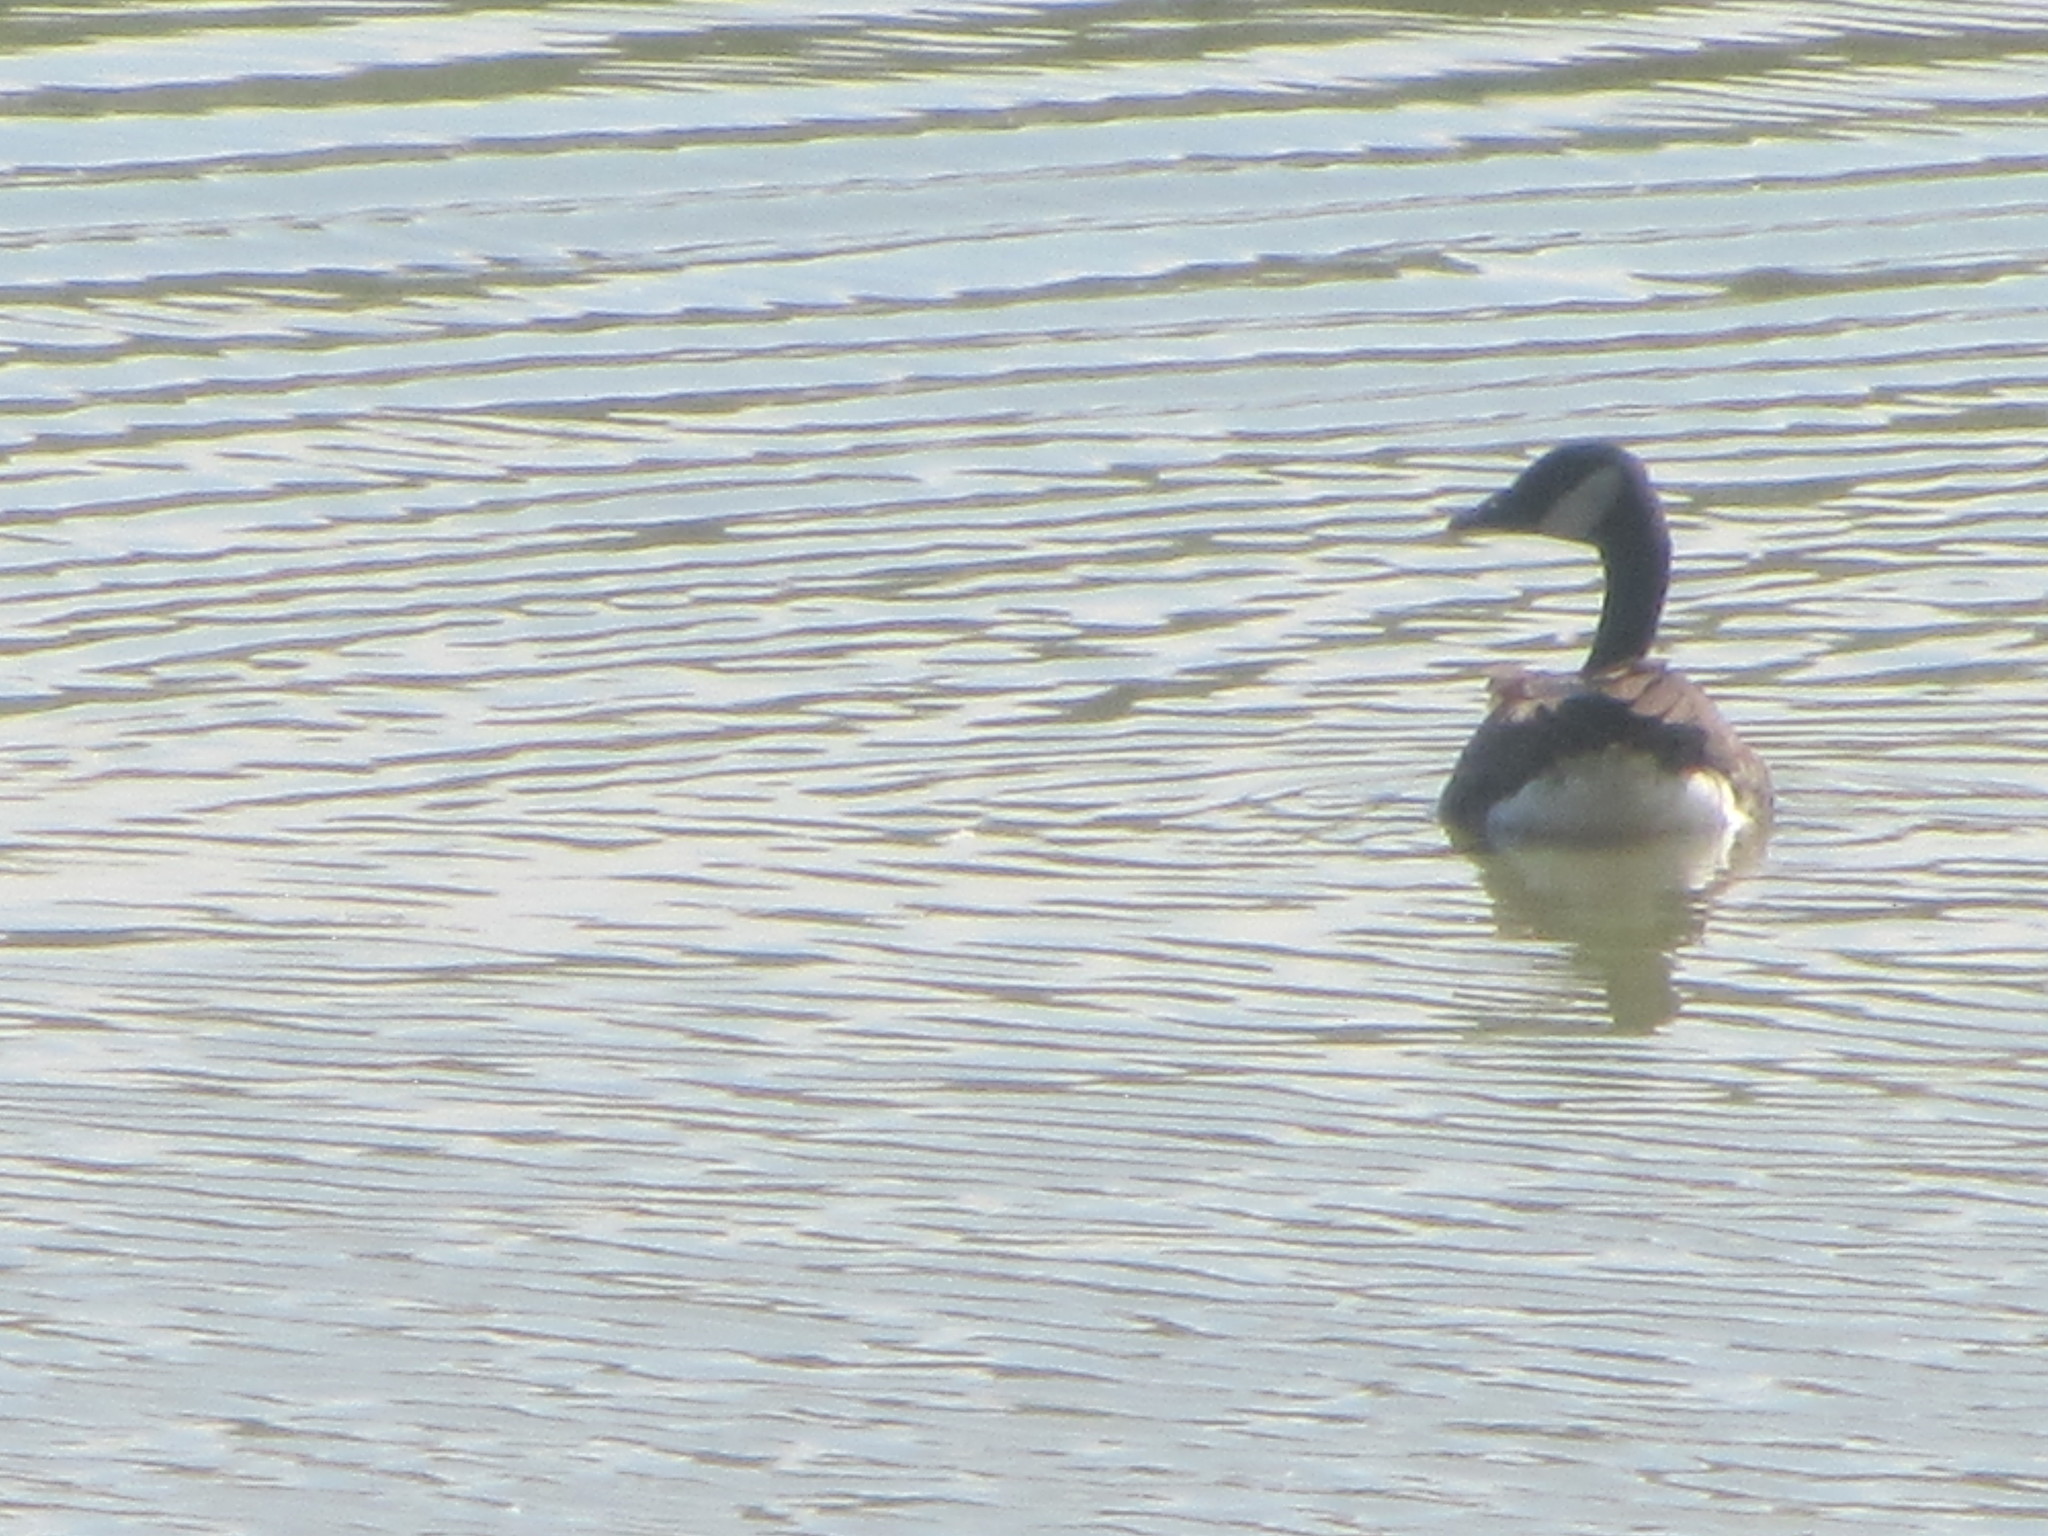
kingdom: Animalia
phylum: Chordata
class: Aves
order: Anseriformes
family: Anatidae
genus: Branta
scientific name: Branta canadensis
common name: Canada goose
